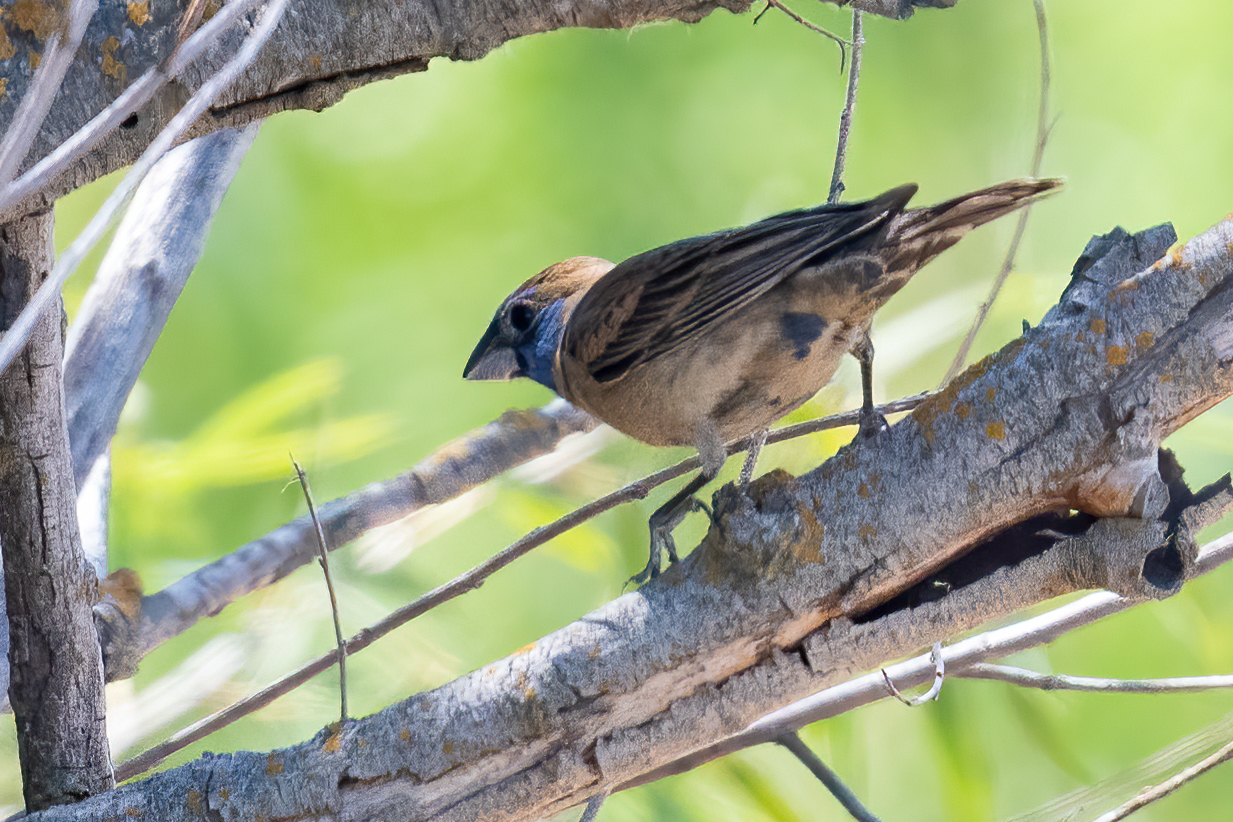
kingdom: Animalia
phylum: Chordata
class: Aves
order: Passeriformes
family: Cardinalidae
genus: Passerina
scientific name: Passerina caerulea
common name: Blue grosbeak
